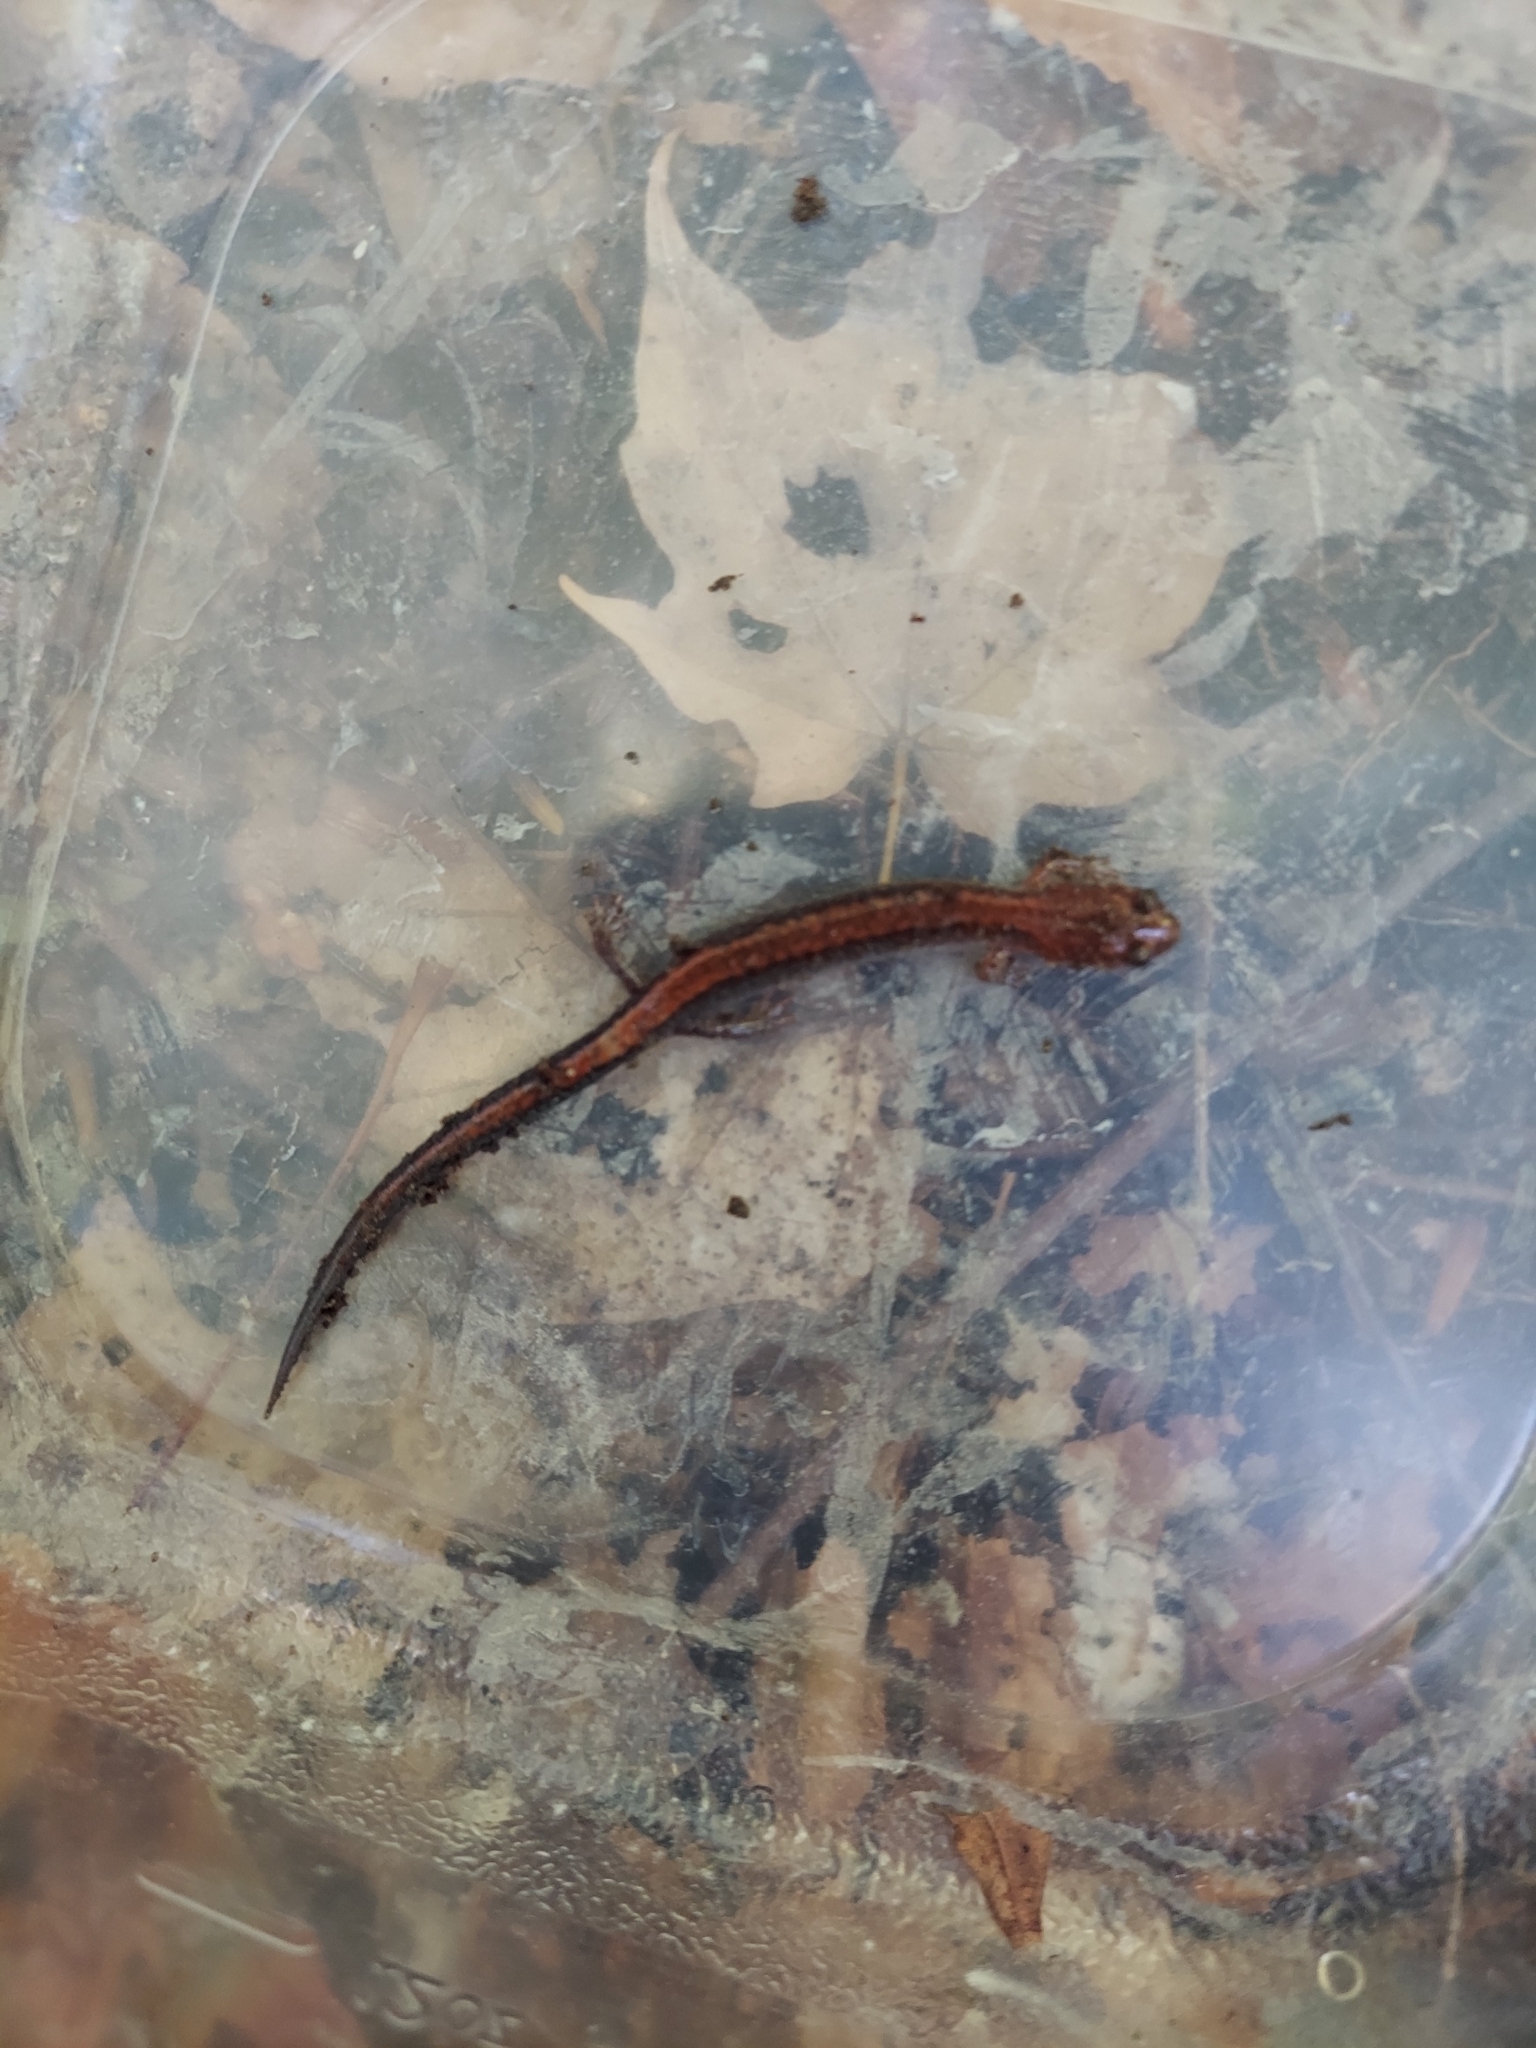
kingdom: Animalia
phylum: Chordata
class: Amphibia
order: Caudata
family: Plethodontidae
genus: Plethodon
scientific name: Plethodon cinereus
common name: Redback salamander
